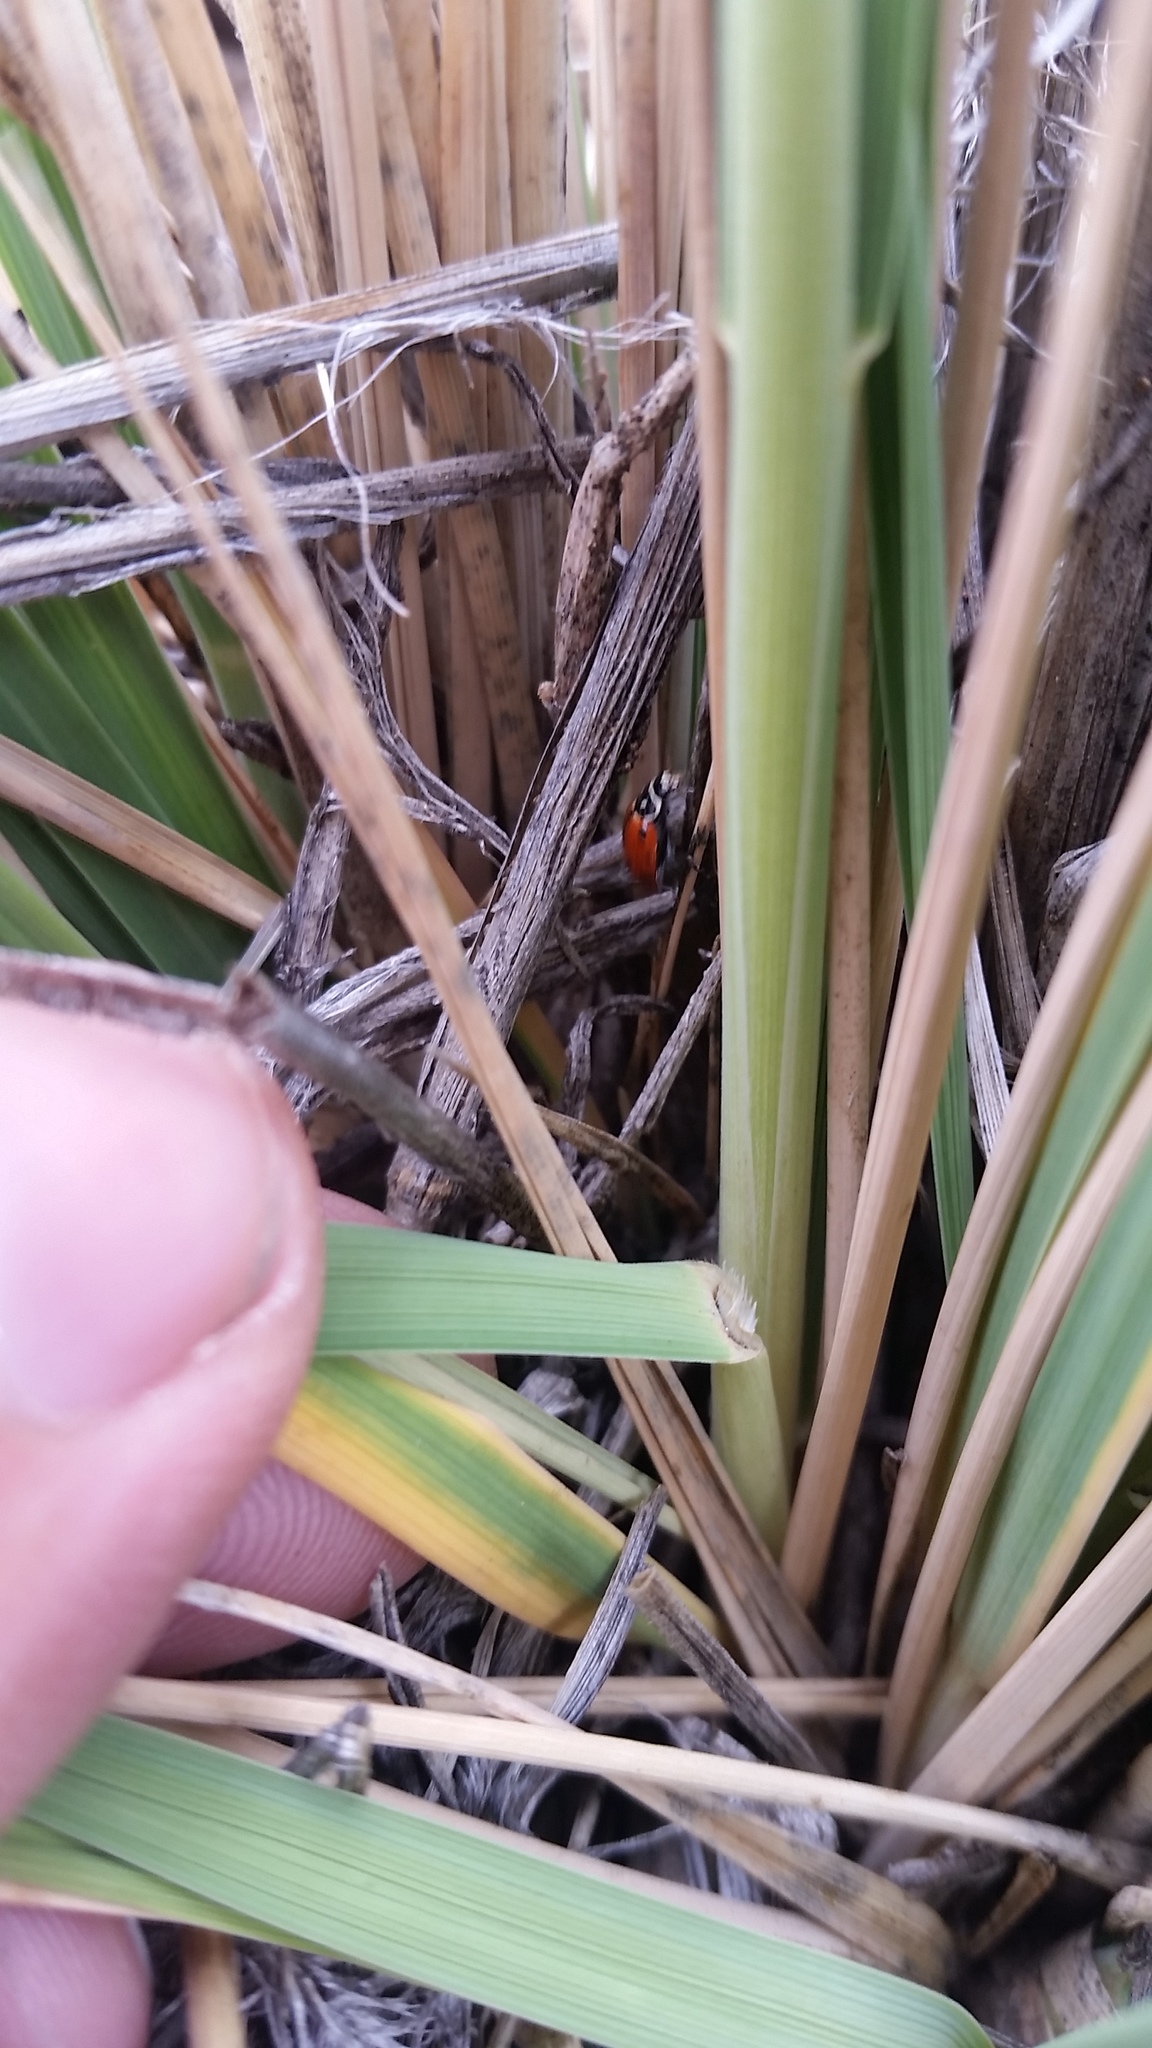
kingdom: Plantae
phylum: Tracheophyta
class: Liliopsida
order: Poales
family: Poaceae
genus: Trisetum
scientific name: Trisetum glomeratum
